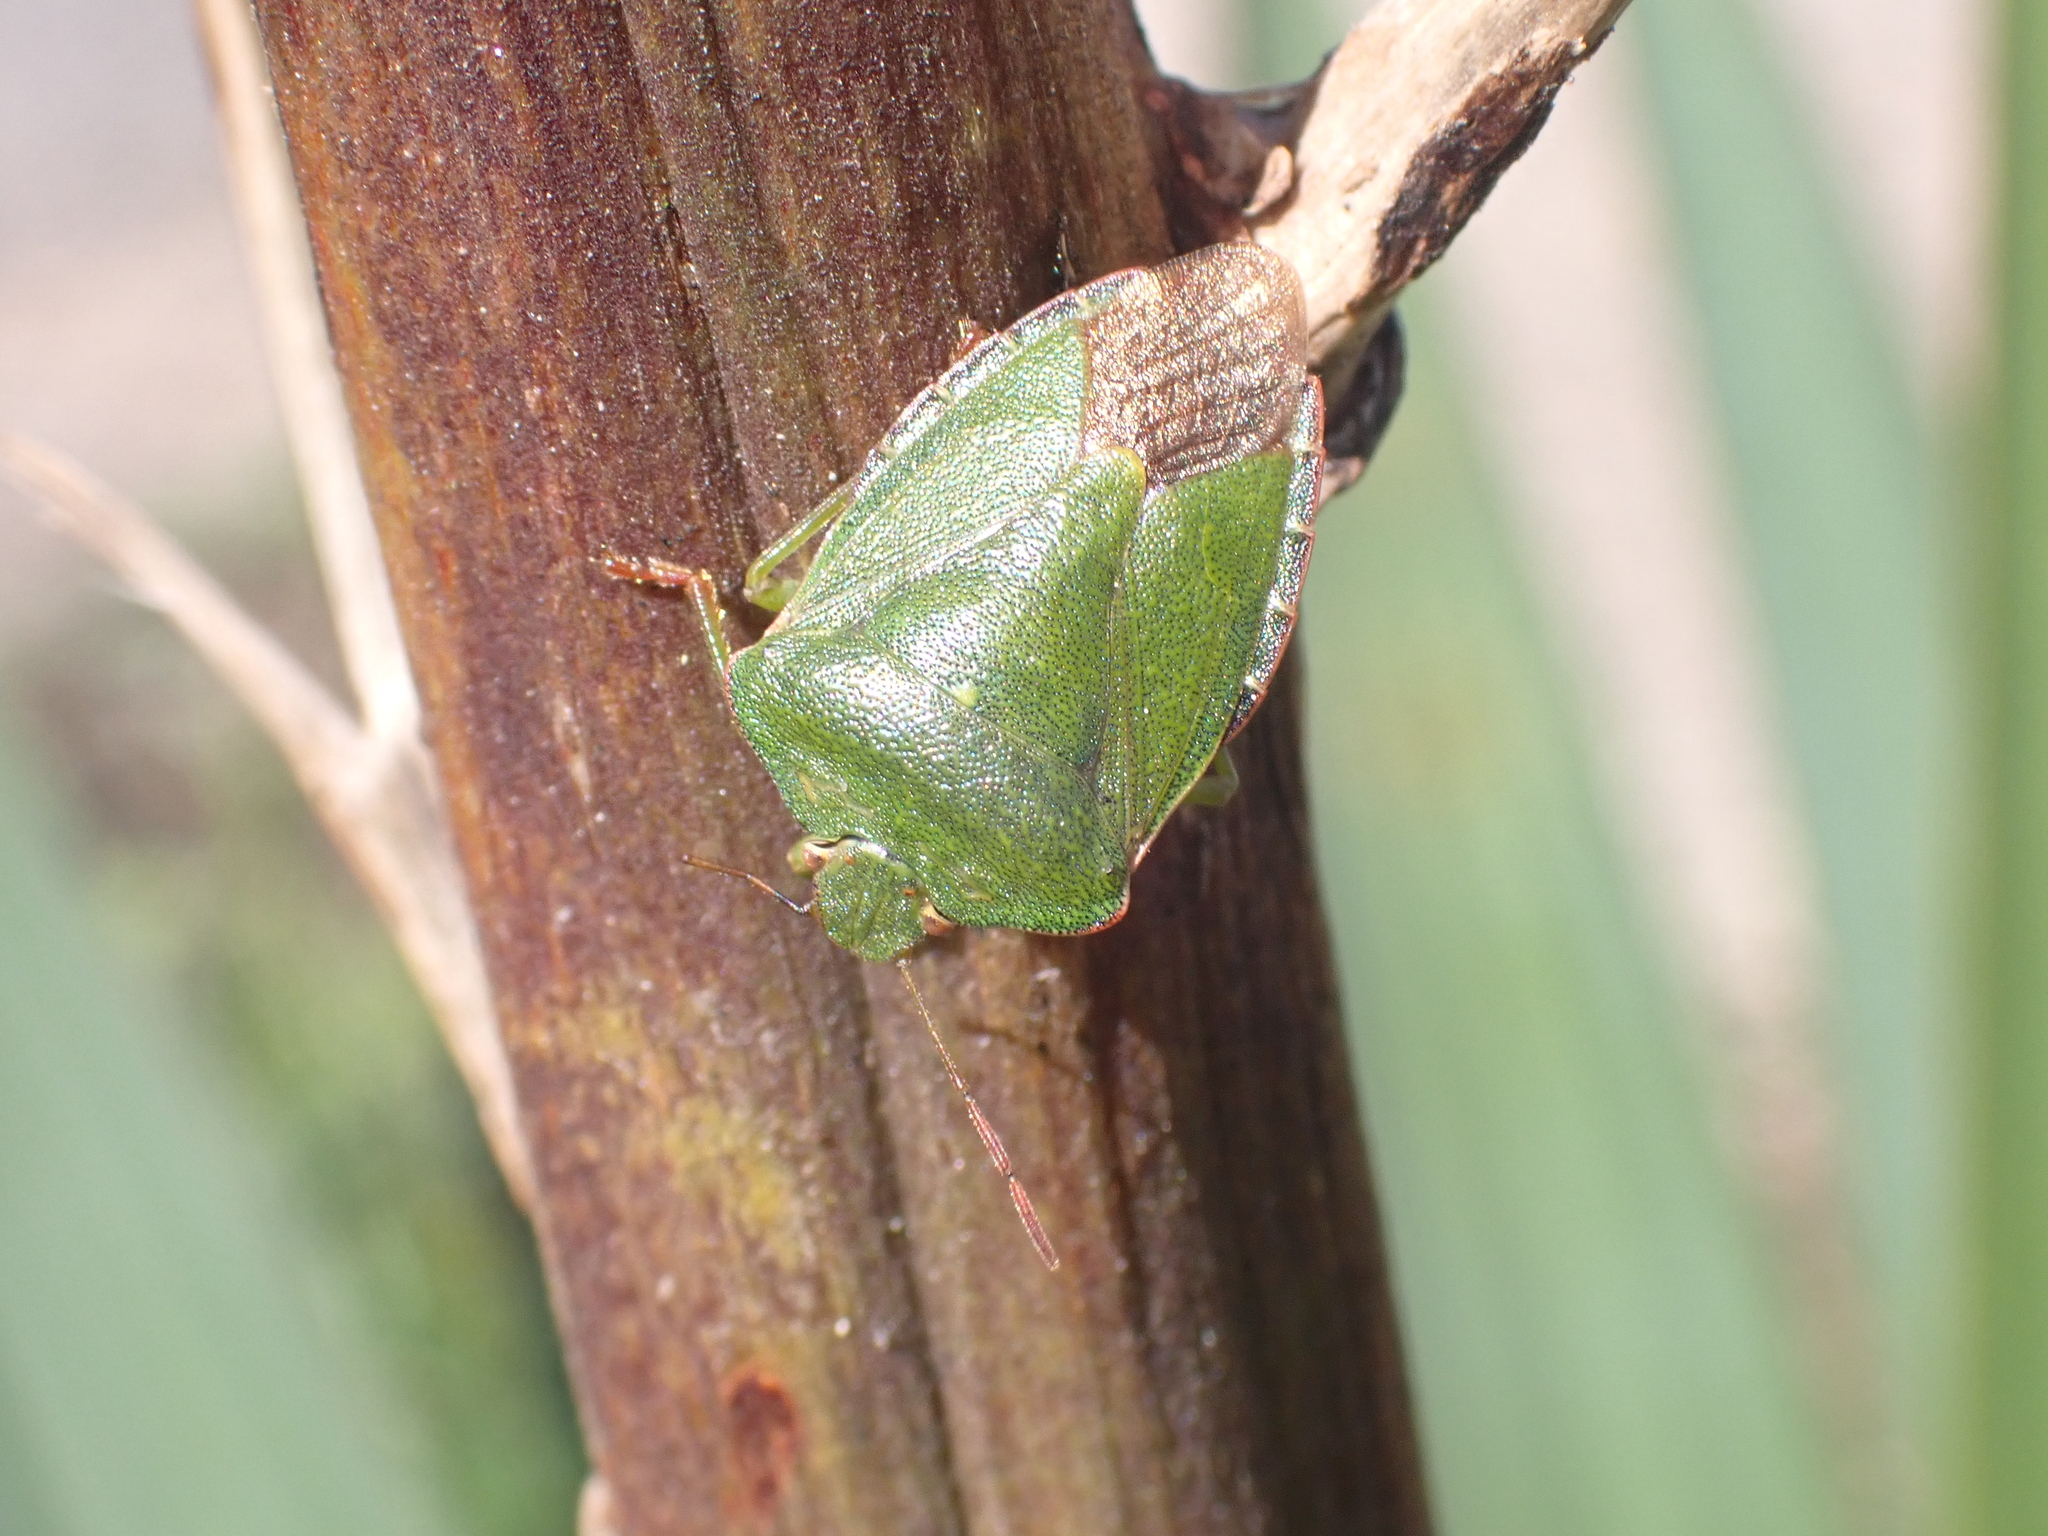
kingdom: Animalia
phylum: Arthropoda
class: Insecta
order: Hemiptera
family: Pentatomidae
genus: Palomena
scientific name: Palomena prasina
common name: Green shieldbug
